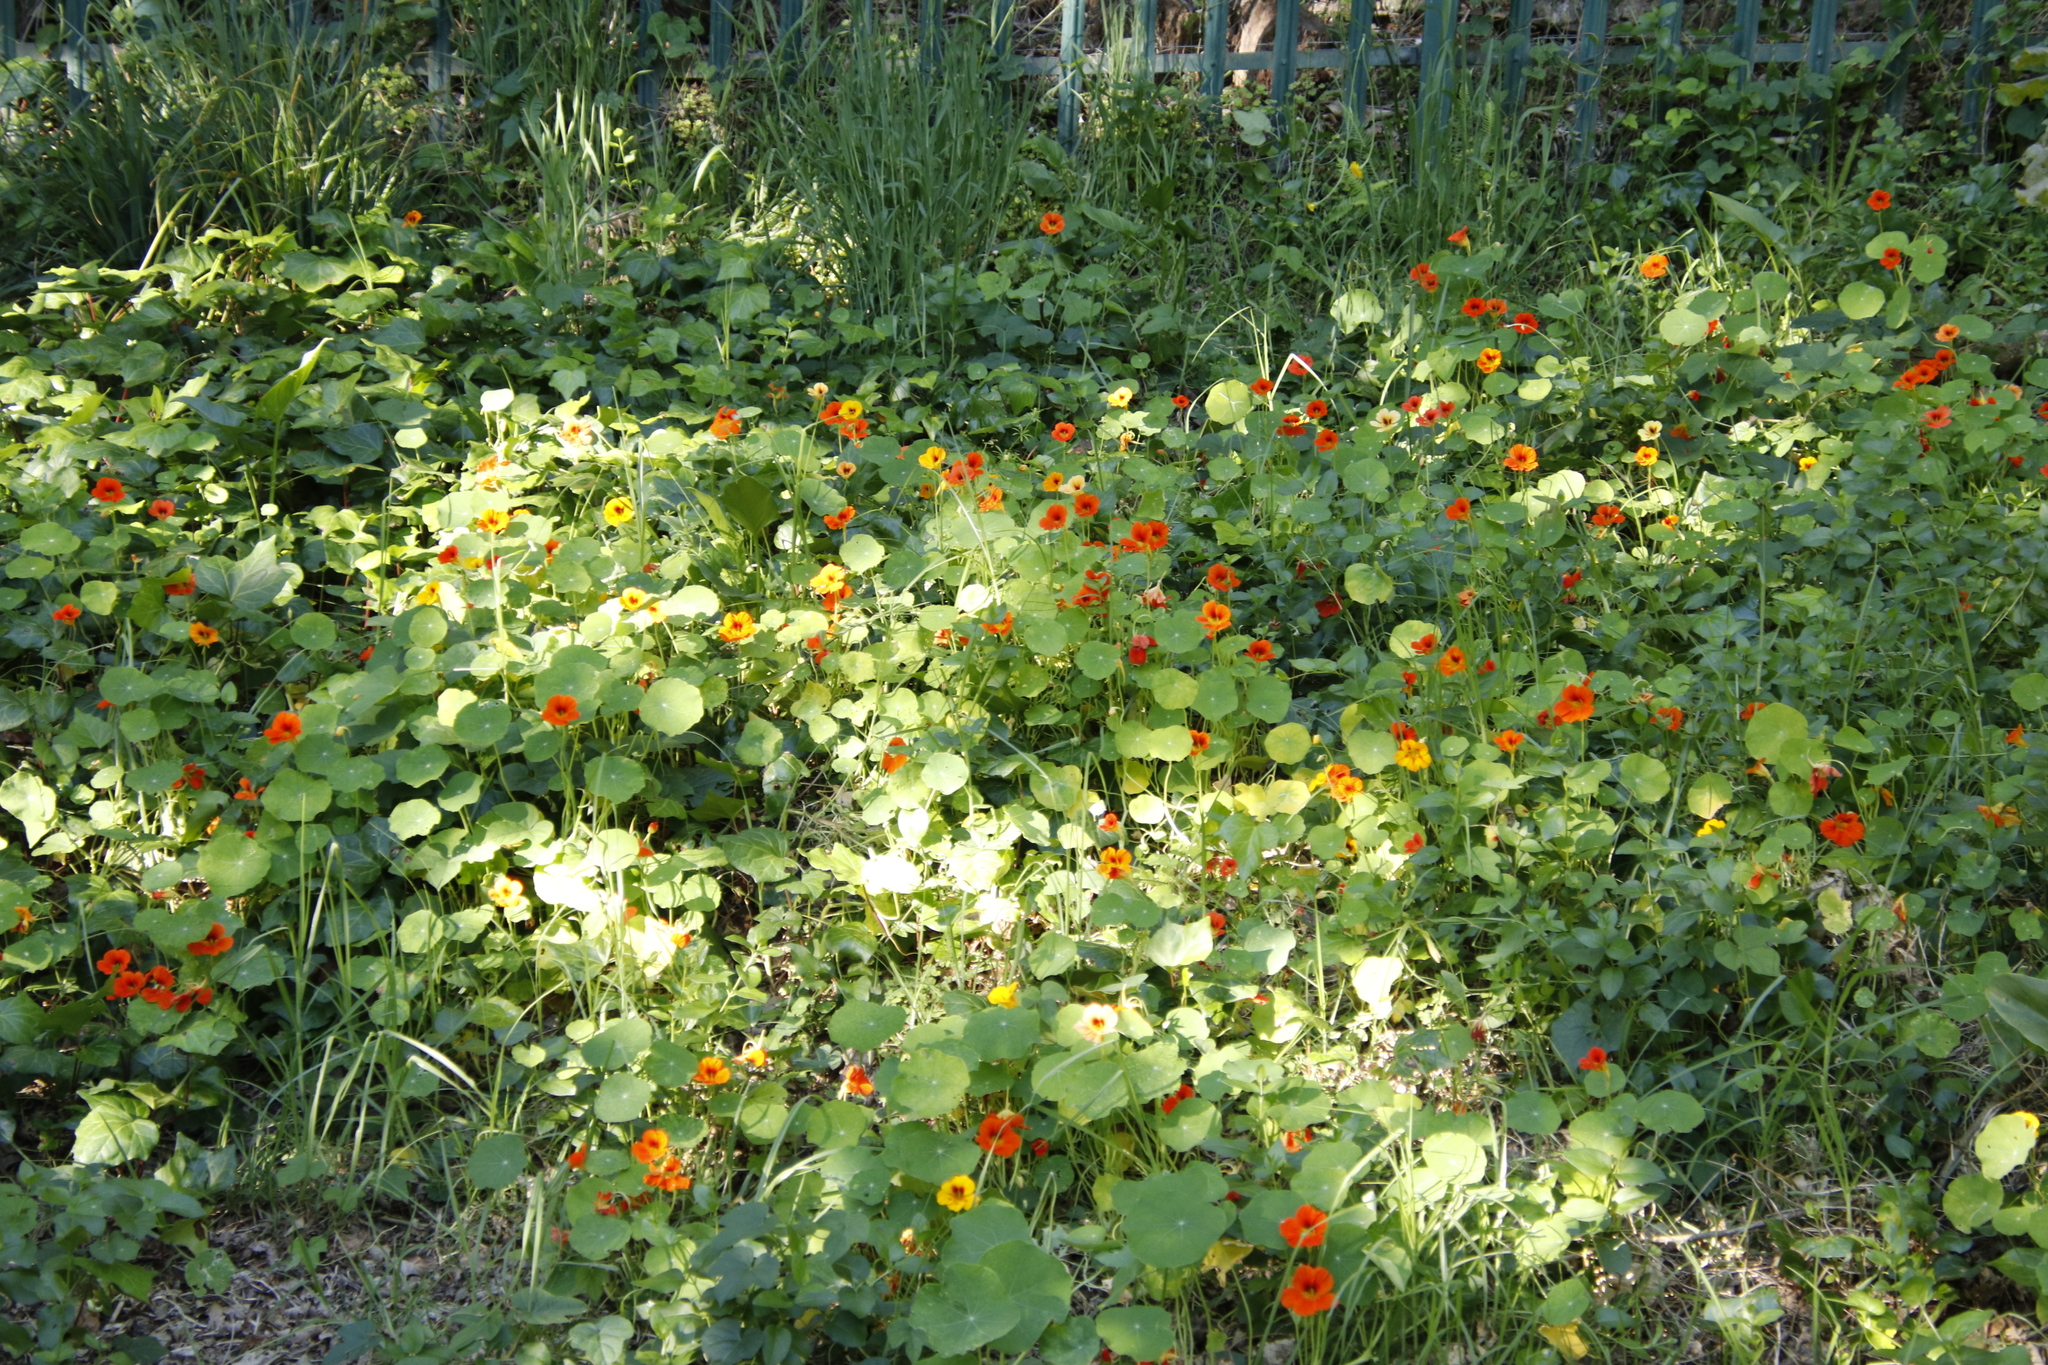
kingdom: Plantae
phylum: Tracheophyta
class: Magnoliopsida
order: Brassicales
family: Tropaeolaceae
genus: Tropaeolum
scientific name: Tropaeolum majus
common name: Nasturtium
